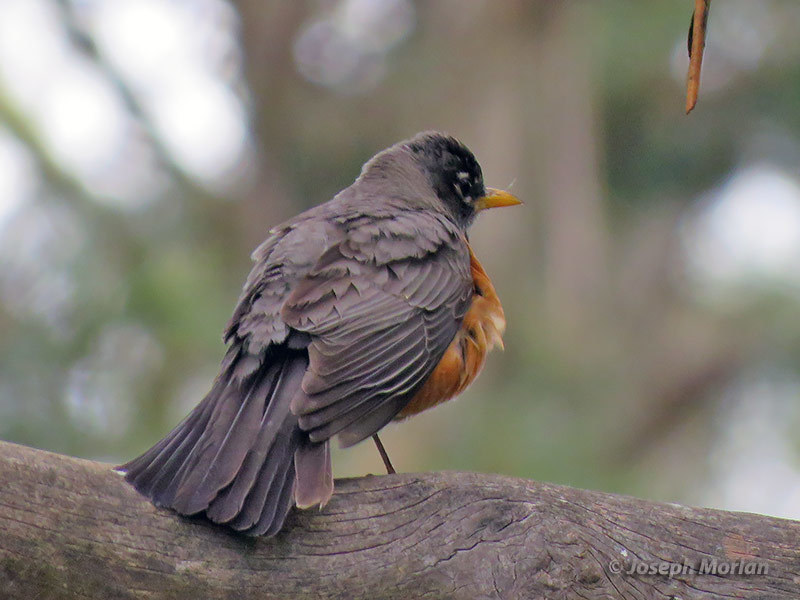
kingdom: Animalia
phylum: Chordata
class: Aves
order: Passeriformes
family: Turdidae
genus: Turdus
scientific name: Turdus migratorius
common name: American robin
